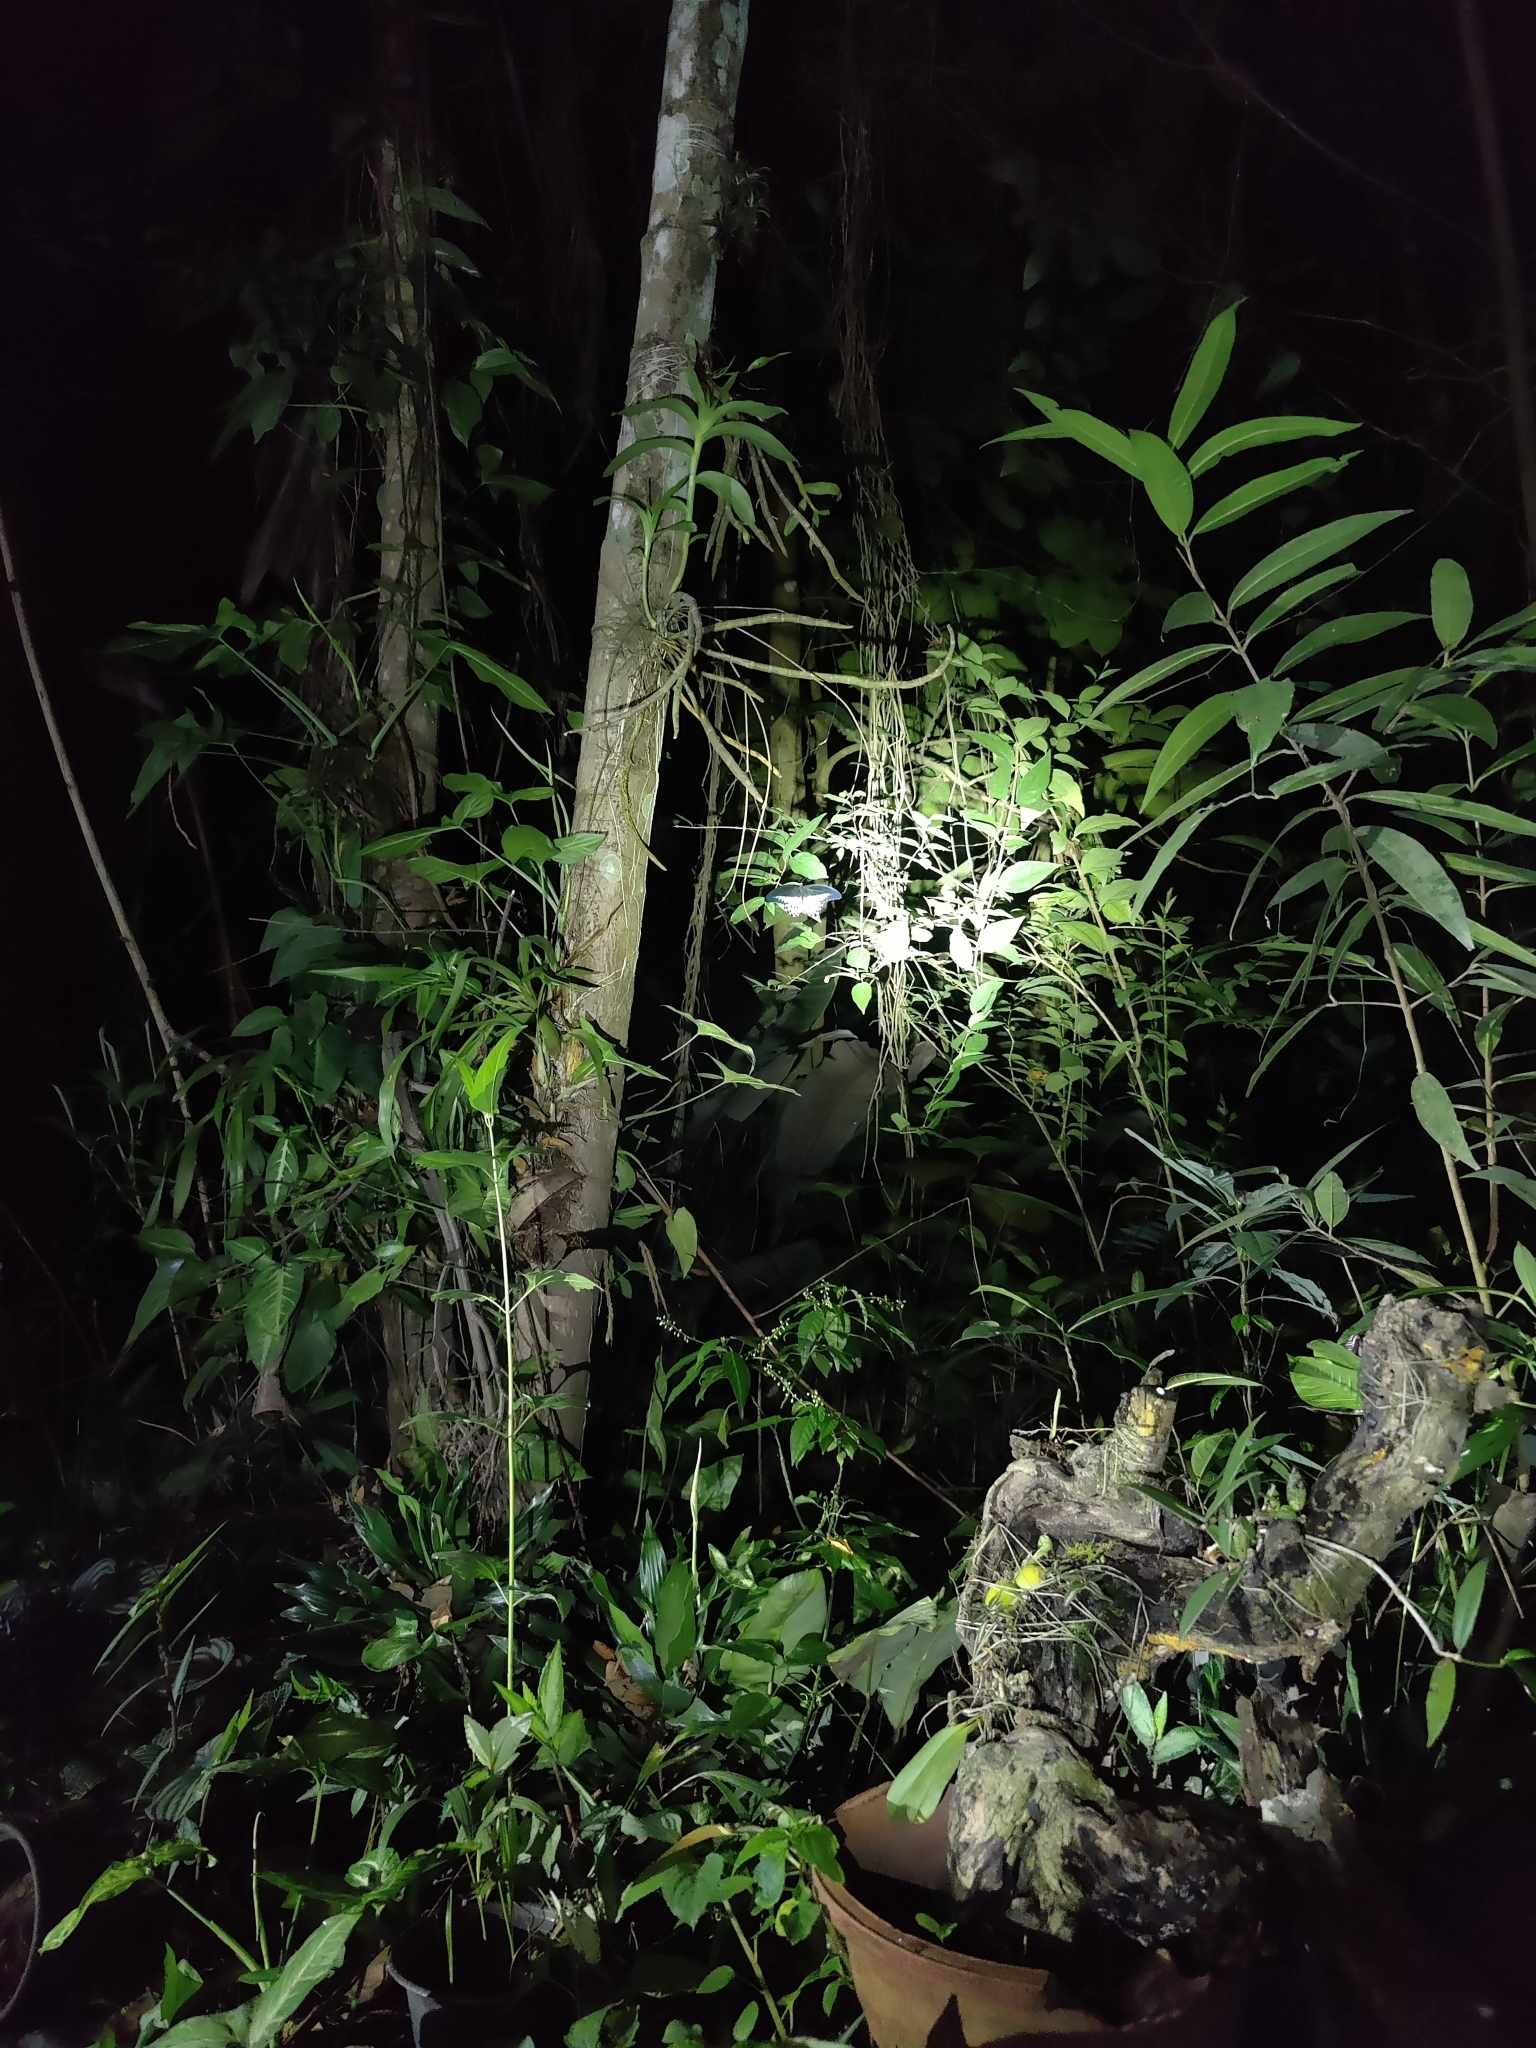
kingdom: Animalia
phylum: Arthropoda
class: Insecta
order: Lepidoptera
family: Papilionidae
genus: Papilio
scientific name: Papilio memnon
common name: Great mormon
